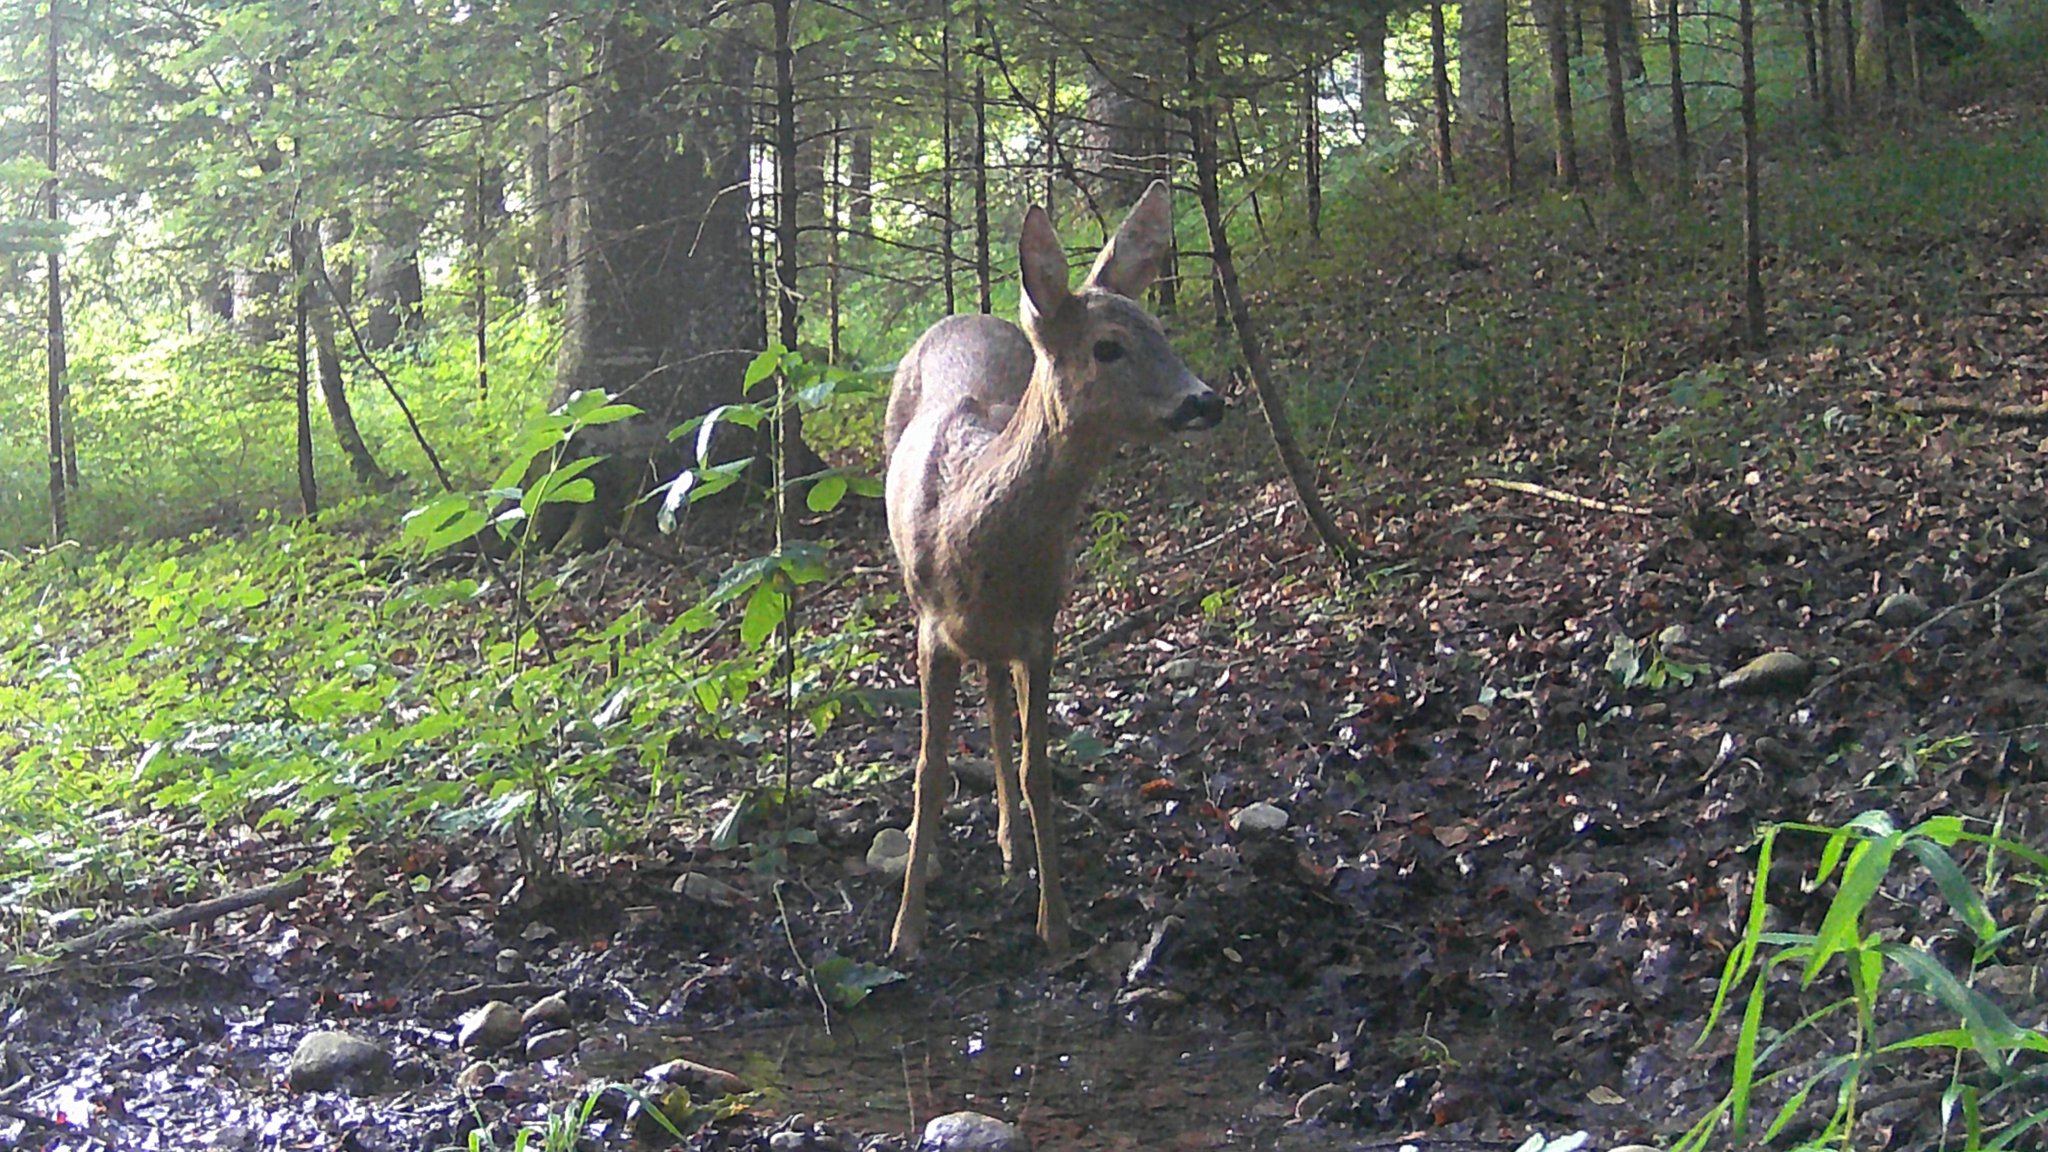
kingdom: Animalia
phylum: Chordata
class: Mammalia
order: Artiodactyla
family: Cervidae
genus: Capreolus
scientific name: Capreolus capreolus
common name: Western roe deer
